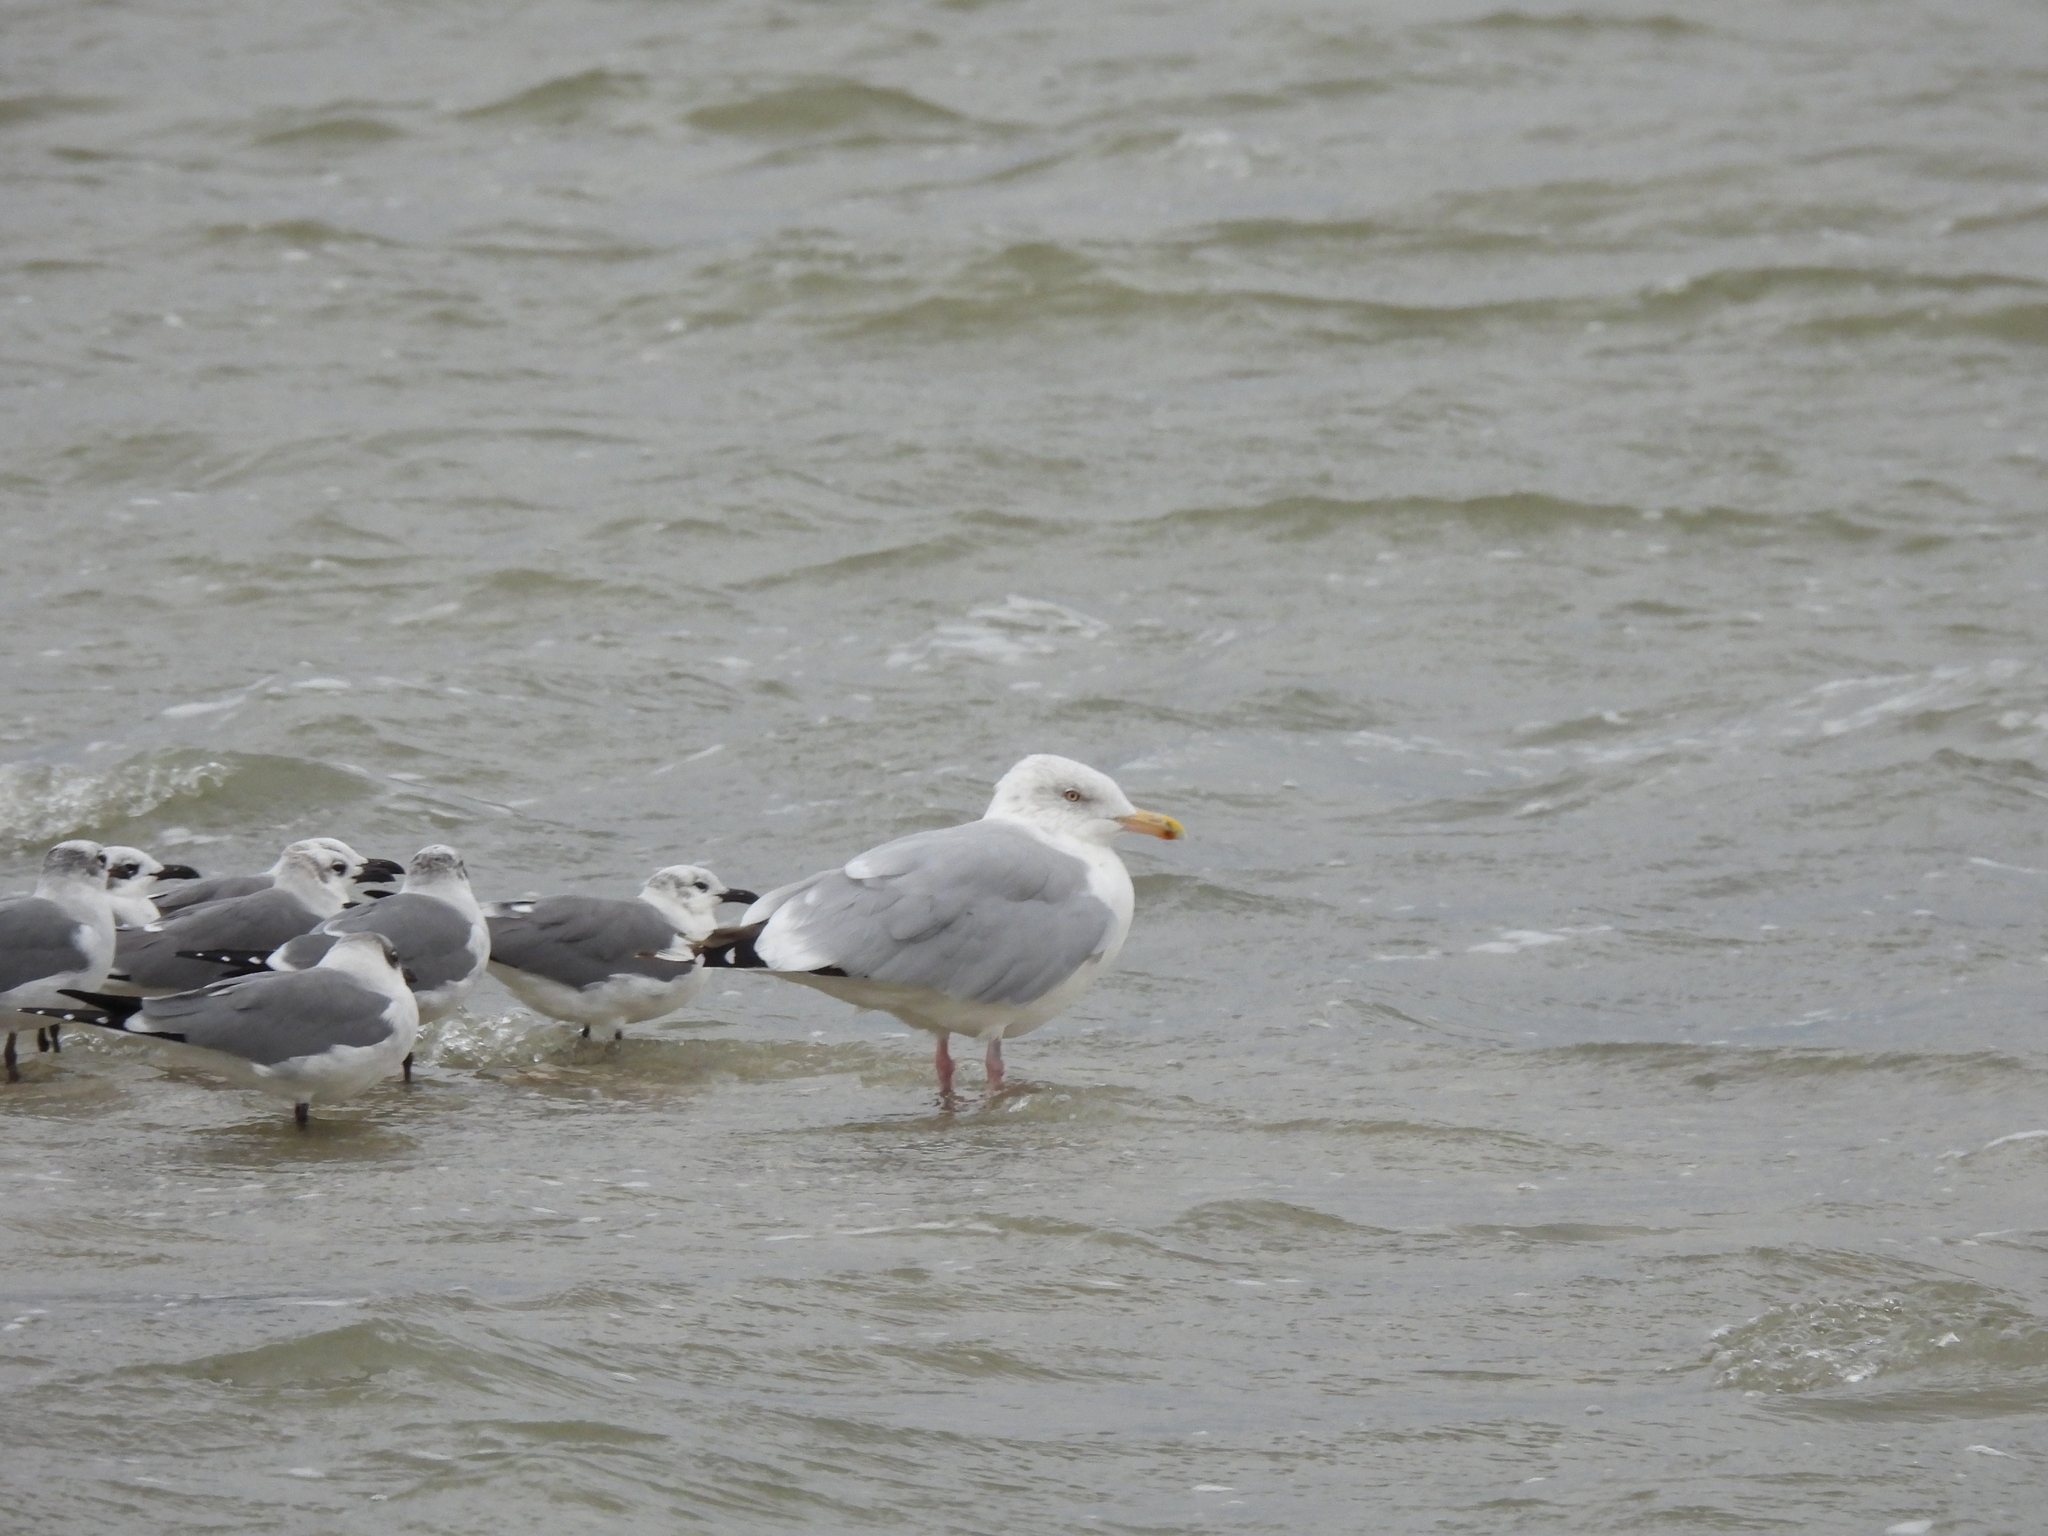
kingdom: Animalia
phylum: Chordata
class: Aves
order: Charadriiformes
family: Laridae
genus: Larus
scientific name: Larus argentatus
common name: Herring gull
